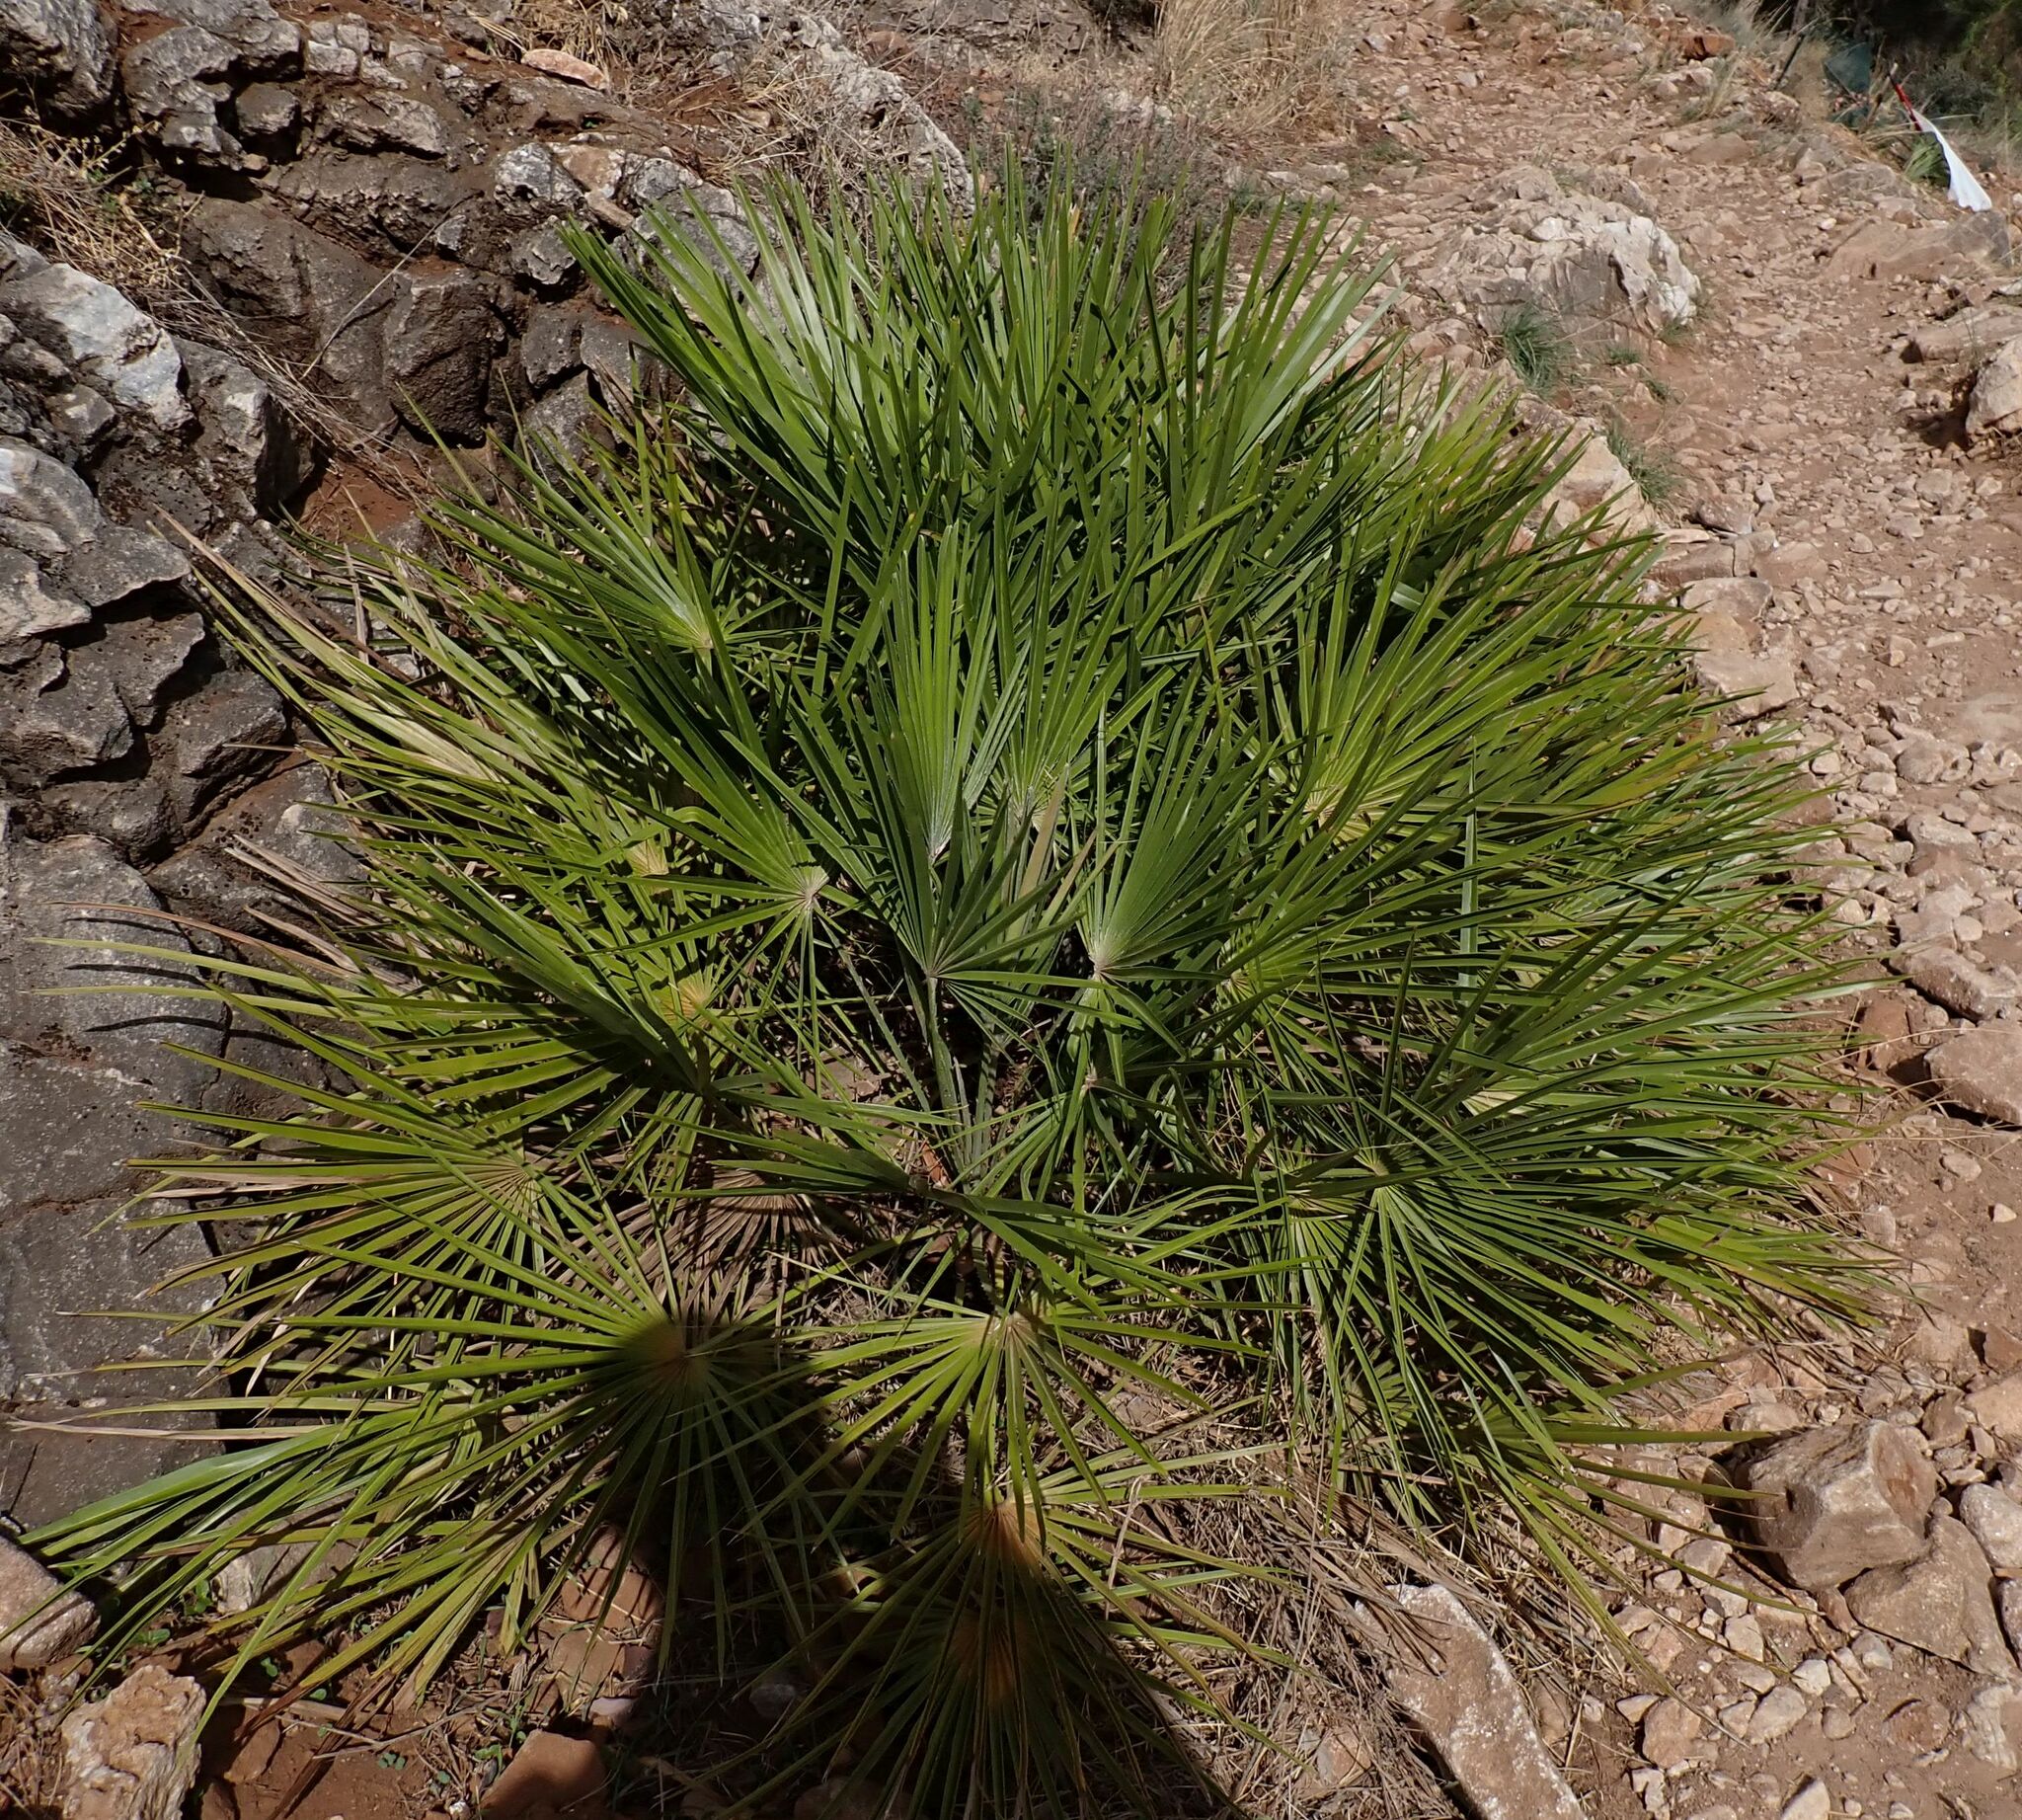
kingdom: Plantae
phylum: Tracheophyta
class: Liliopsida
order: Arecales
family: Arecaceae
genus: Chamaerops
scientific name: Chamaerops humilis
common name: Dwarf fan palm
